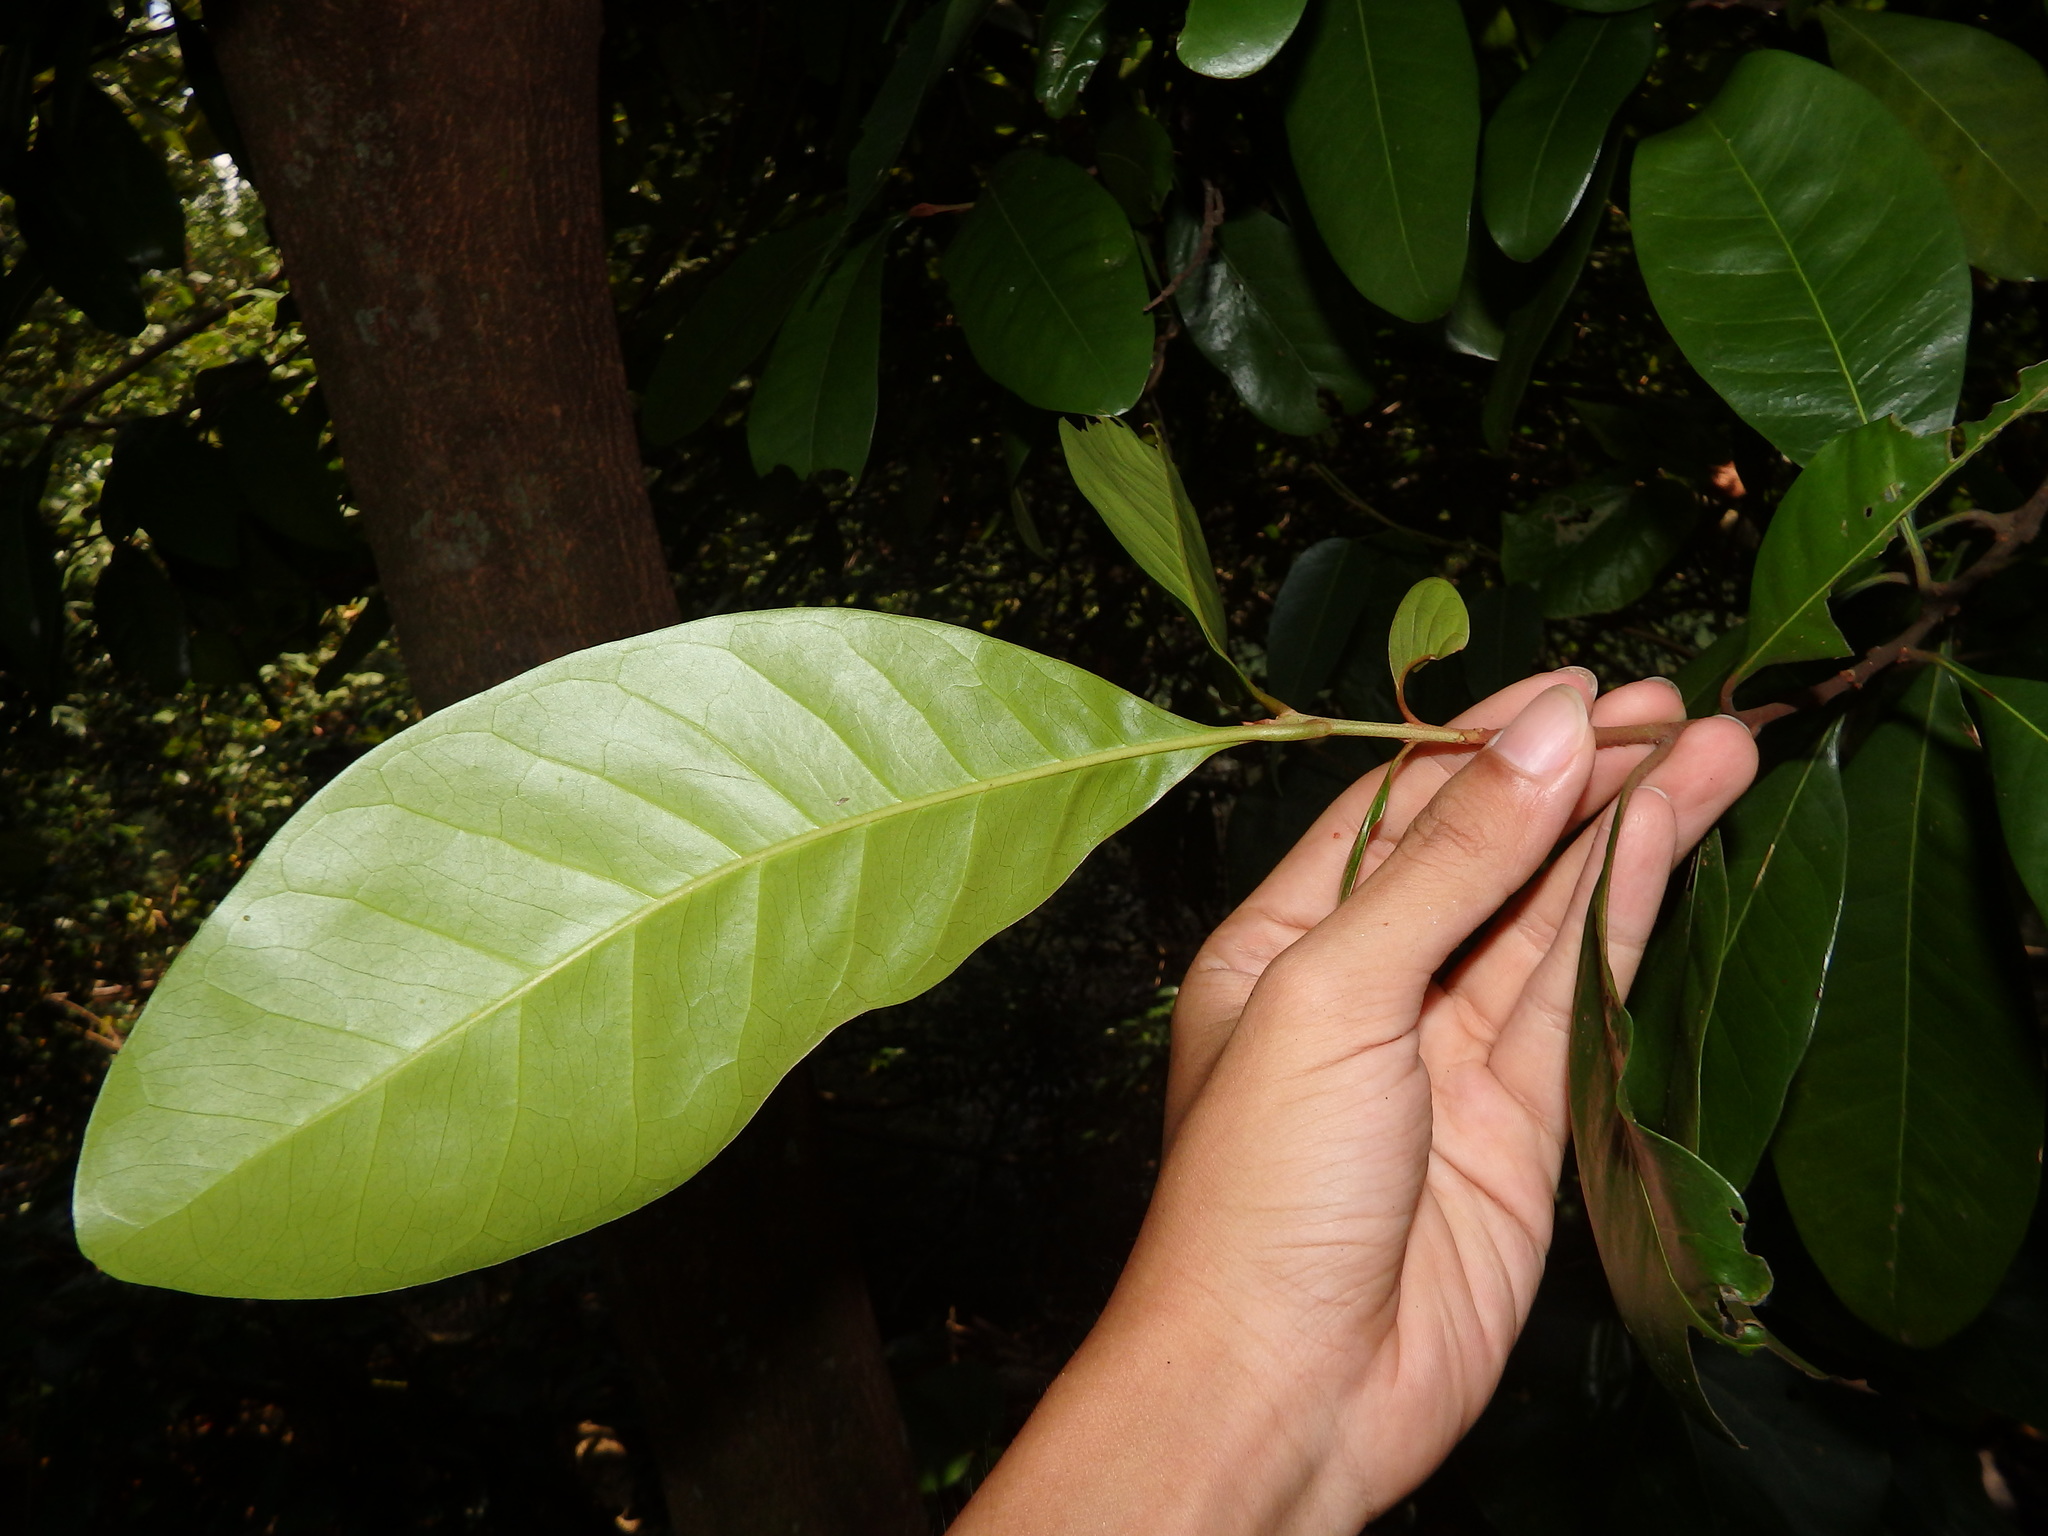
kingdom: Plantae
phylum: Tracheophyta
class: Magnoliopsida
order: Ericales
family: Sapotaceae
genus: Planchonella
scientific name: Planchonella obovata
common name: Black-ash
